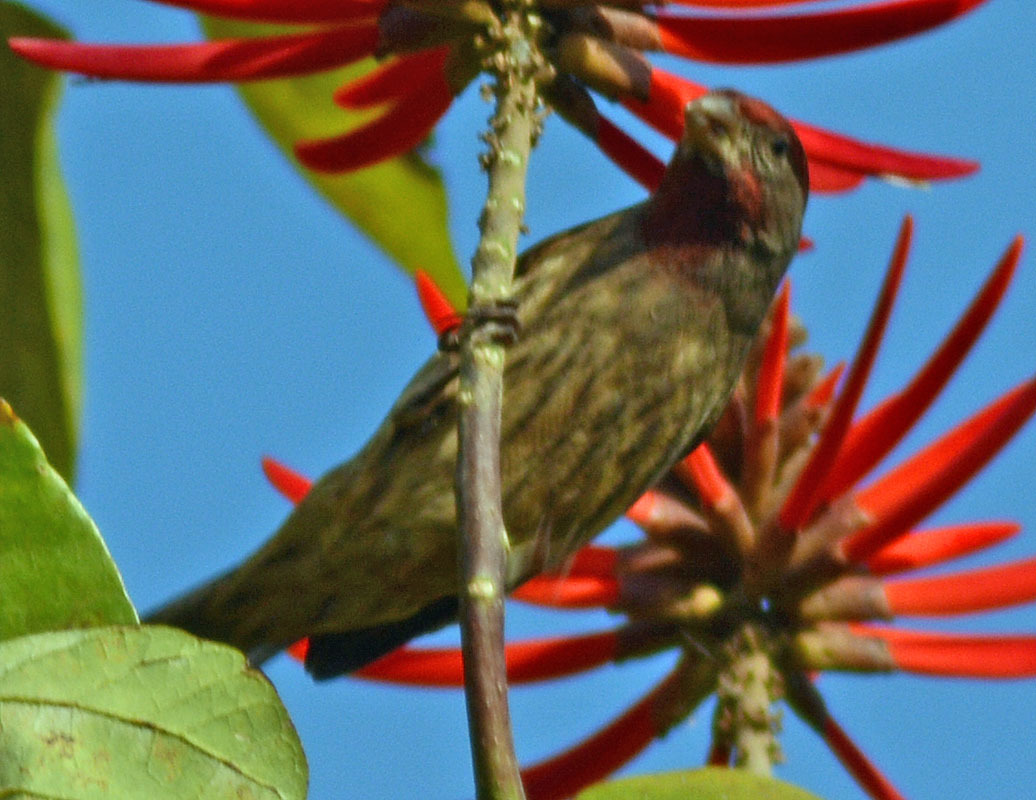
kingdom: Animalia
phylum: Chordata
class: Aves
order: Passeriformes
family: Fringillidae
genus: Haemorhous
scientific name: Haemorhous mexicanus
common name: House finch
